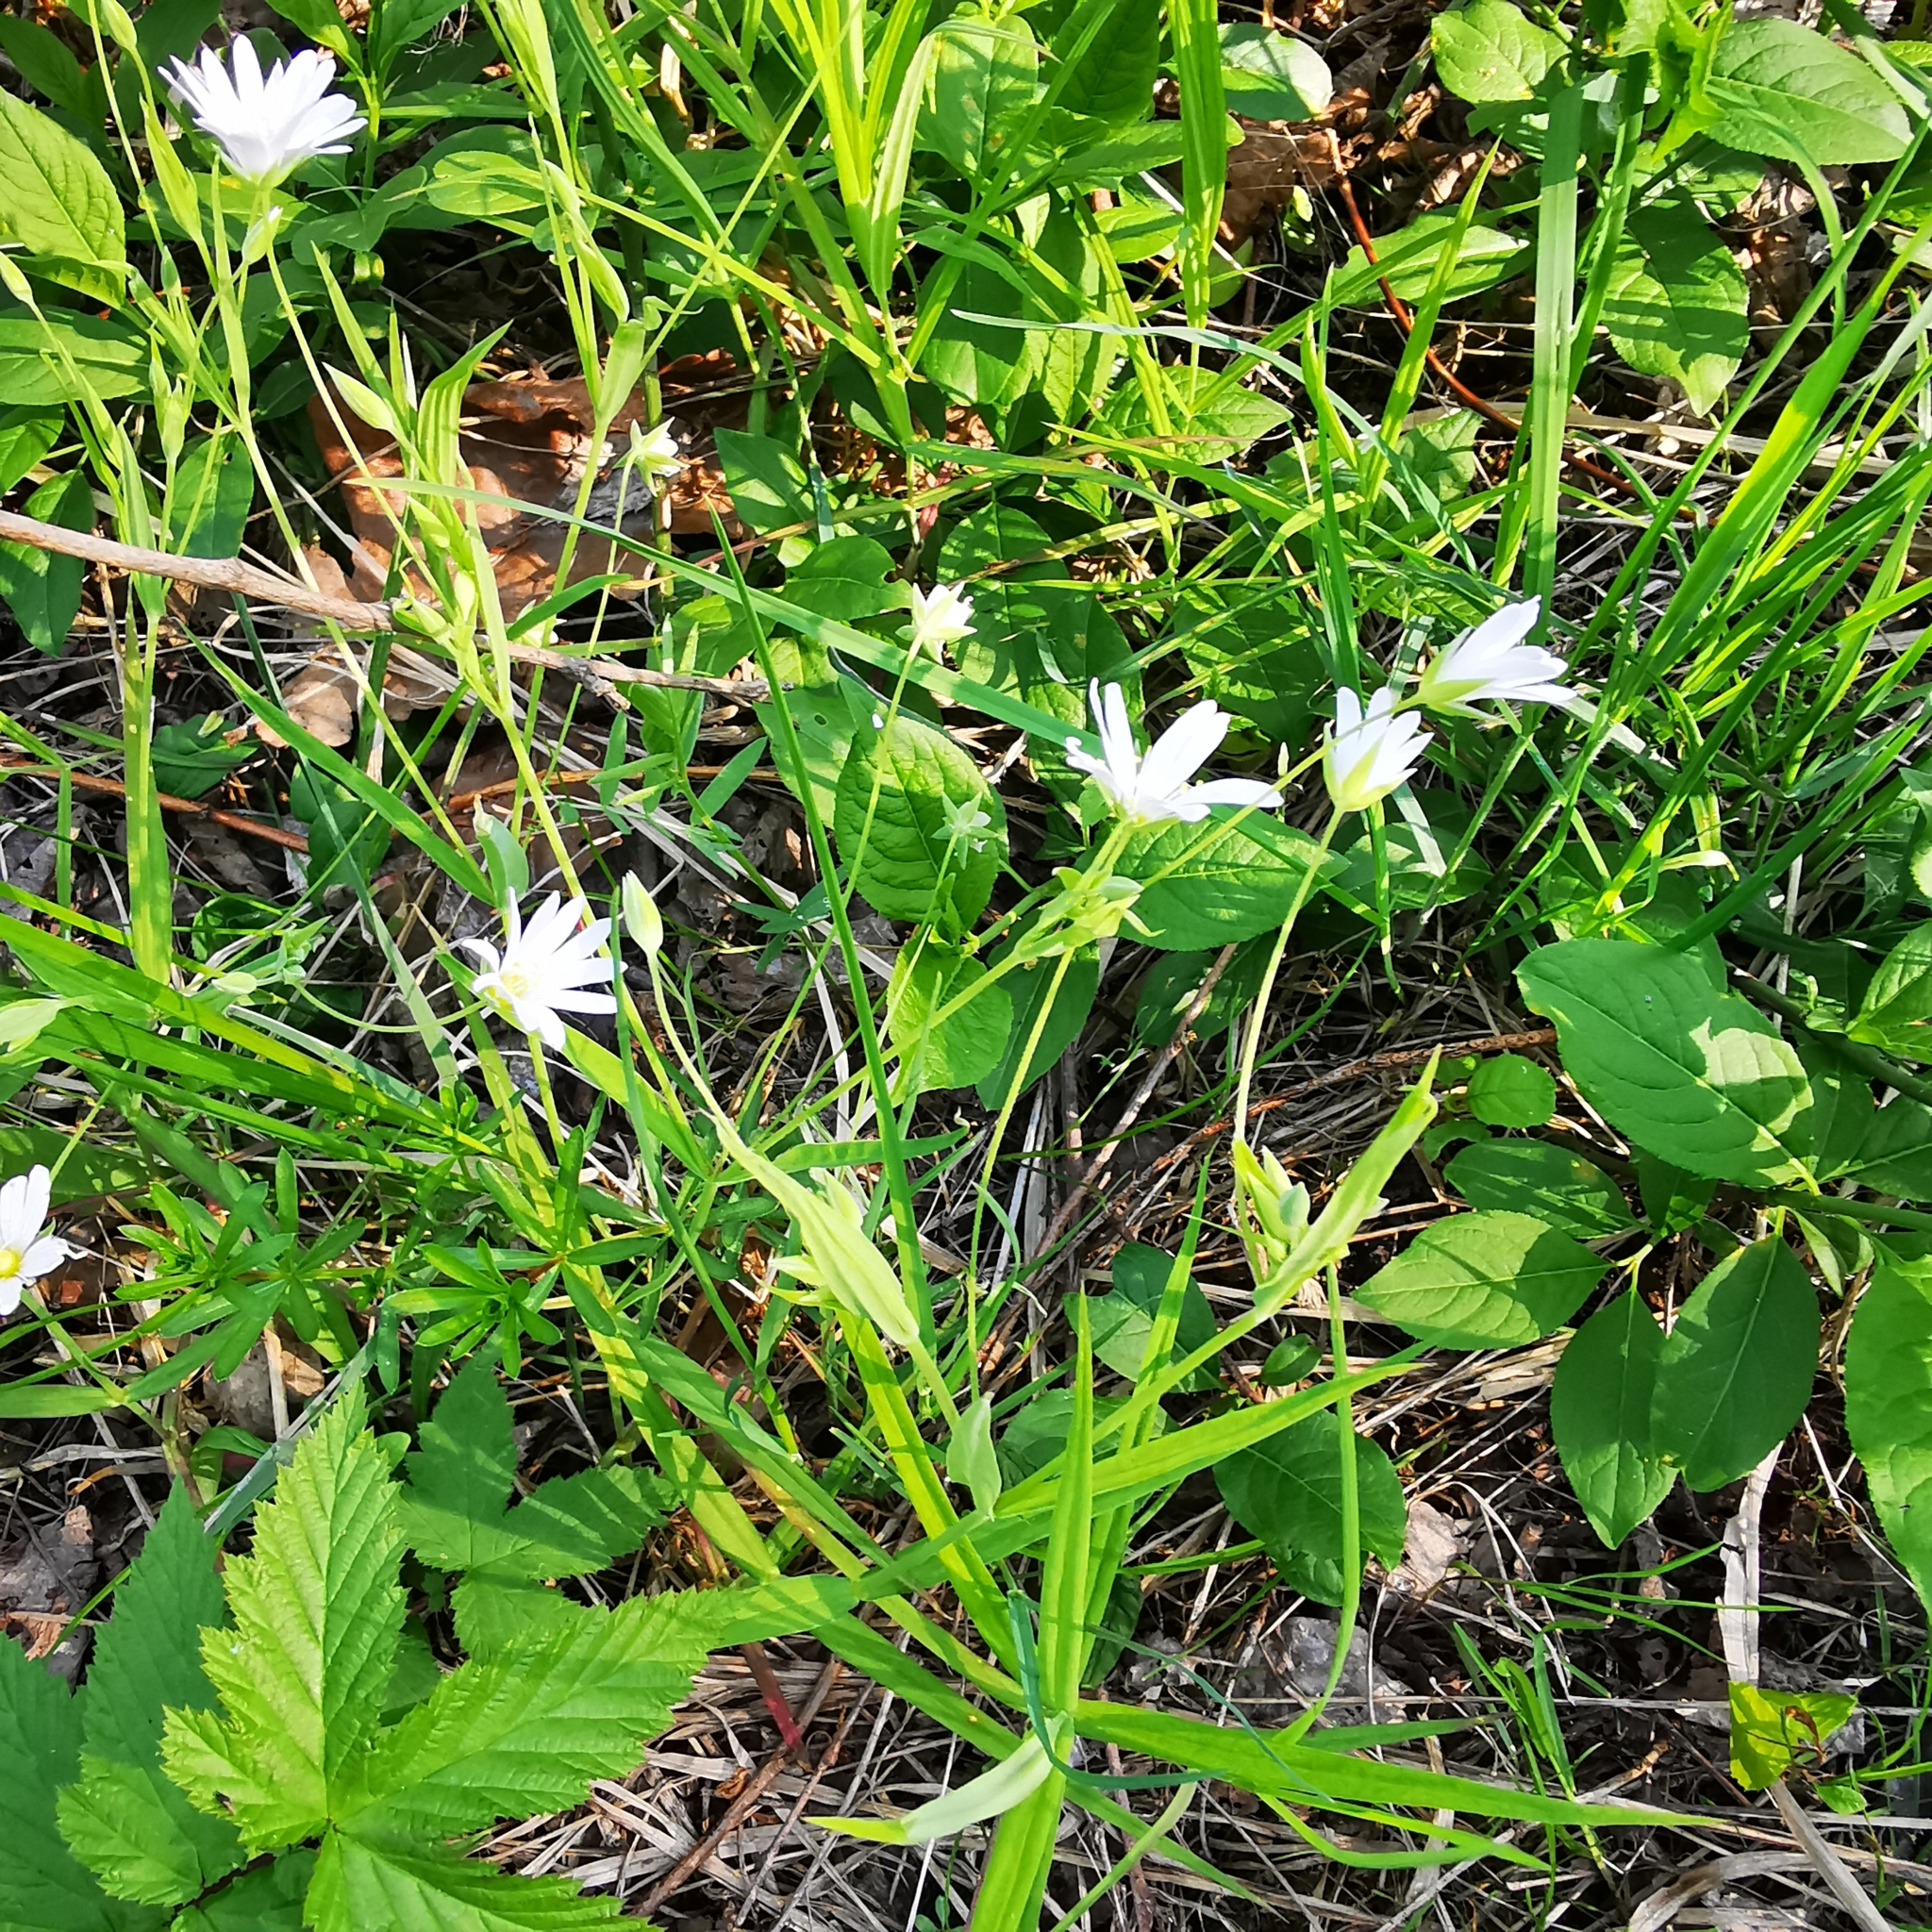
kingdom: Plantae
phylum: Tracheophyta
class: Magnoliopsida
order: Caryophyllales
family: Caryophyllaceae
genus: Rabelera
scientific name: Rabelera holostea
